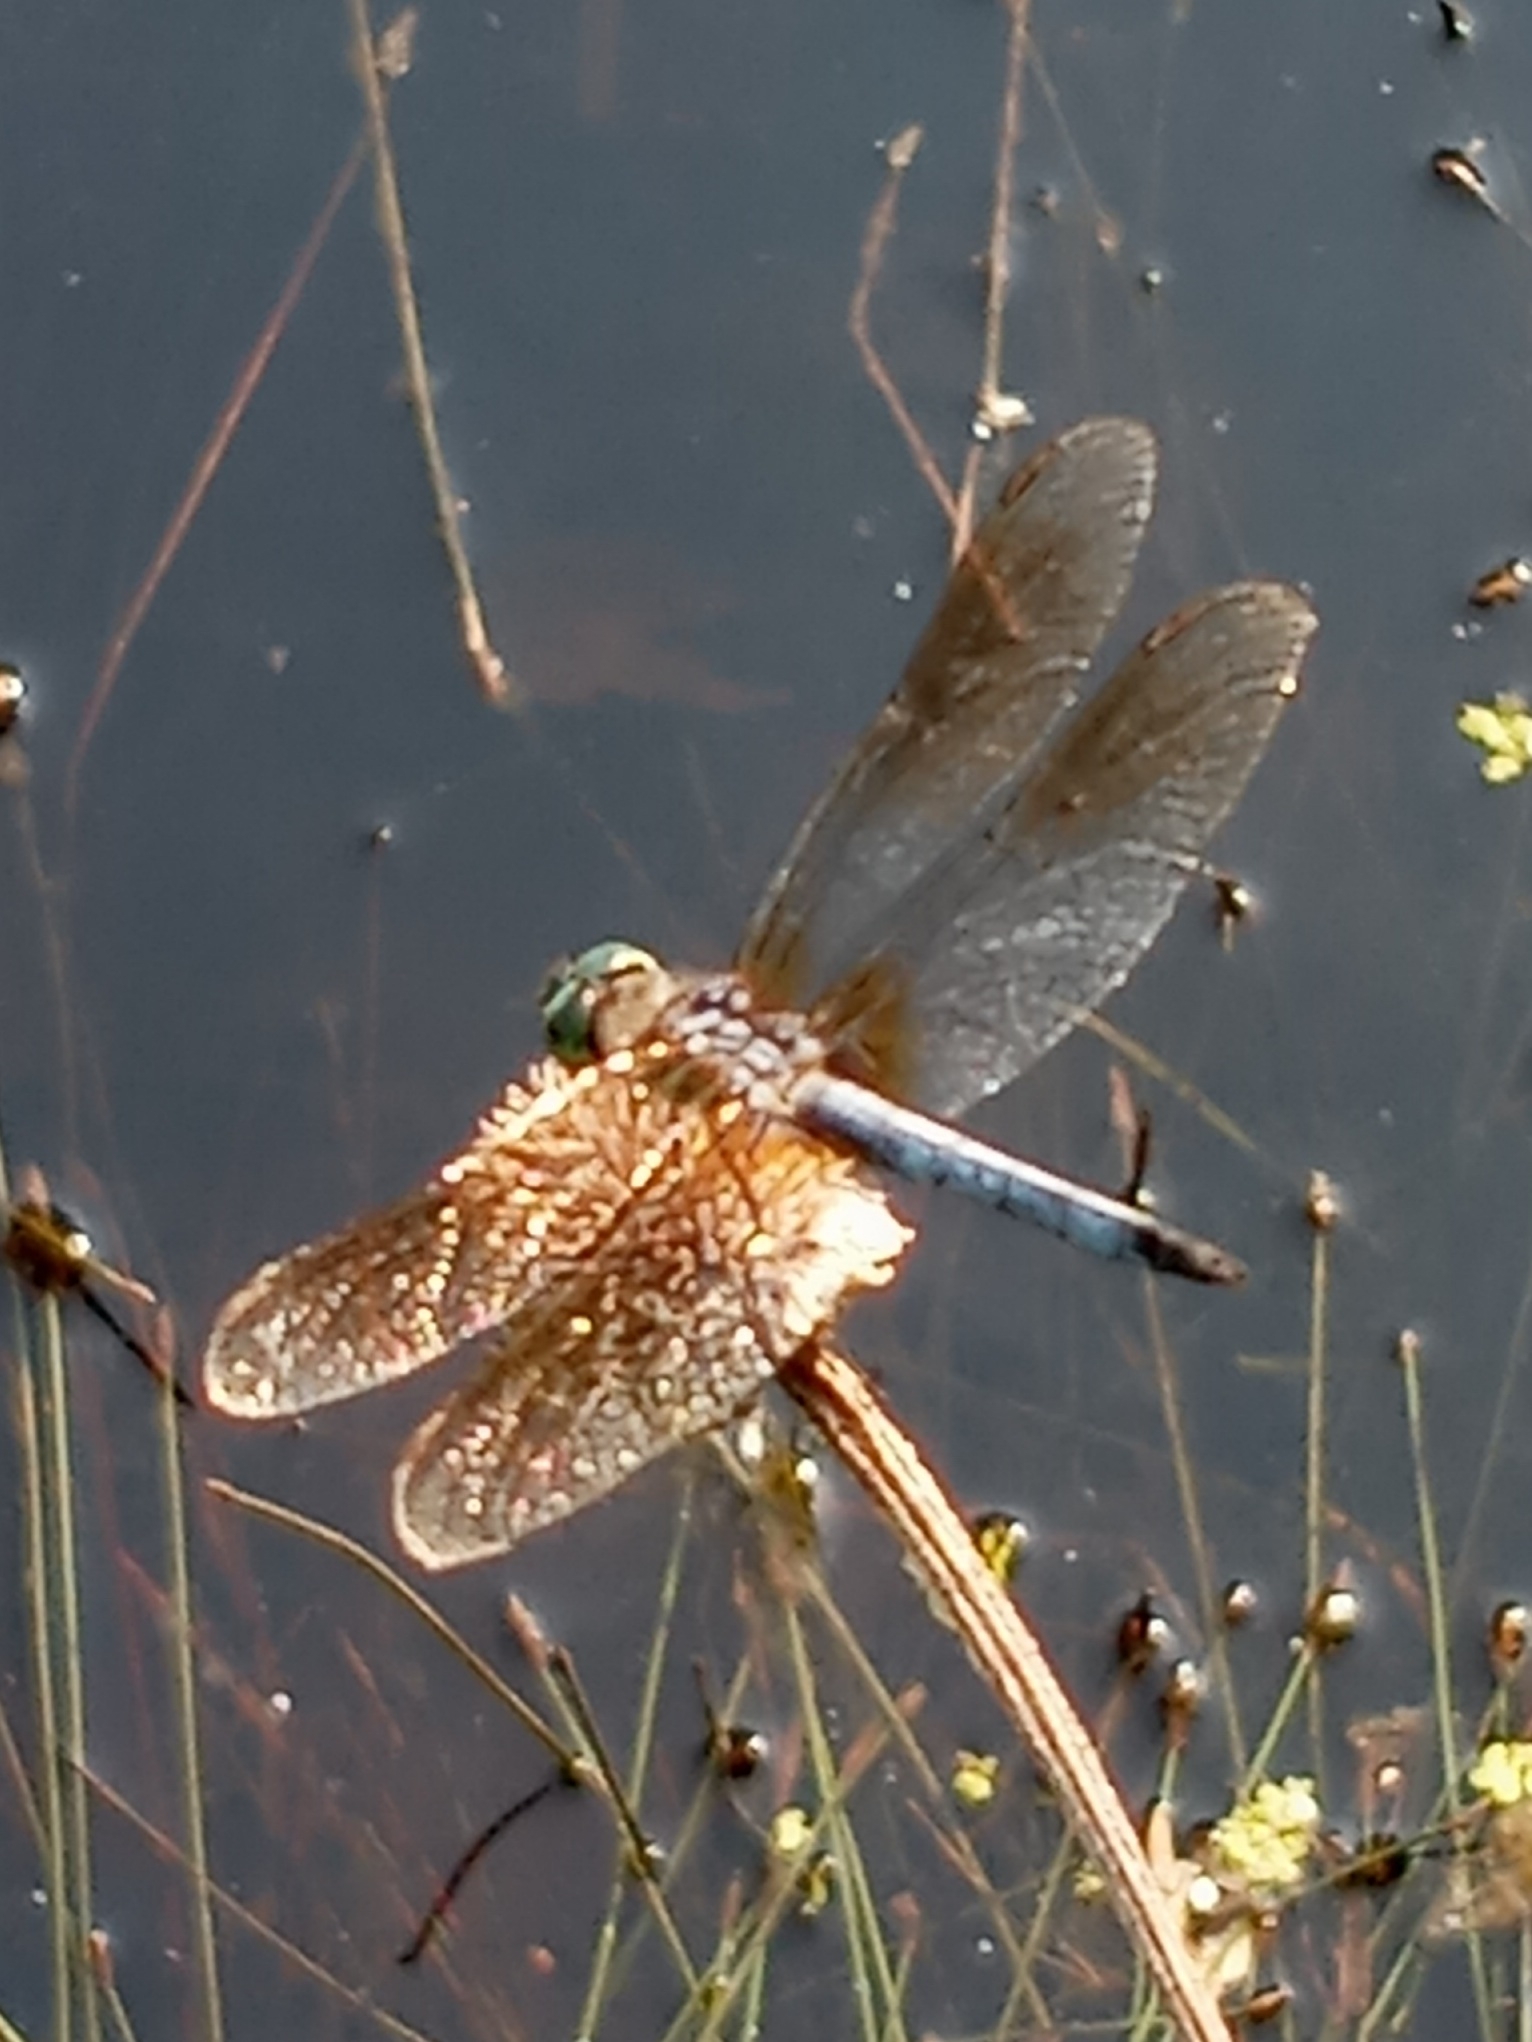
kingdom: Animalia
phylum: Arthropoda
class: Insecta
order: Odonata
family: Libellulidae
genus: Pachydiplax
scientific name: Pachydiplax longipennis
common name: Blue dasher
